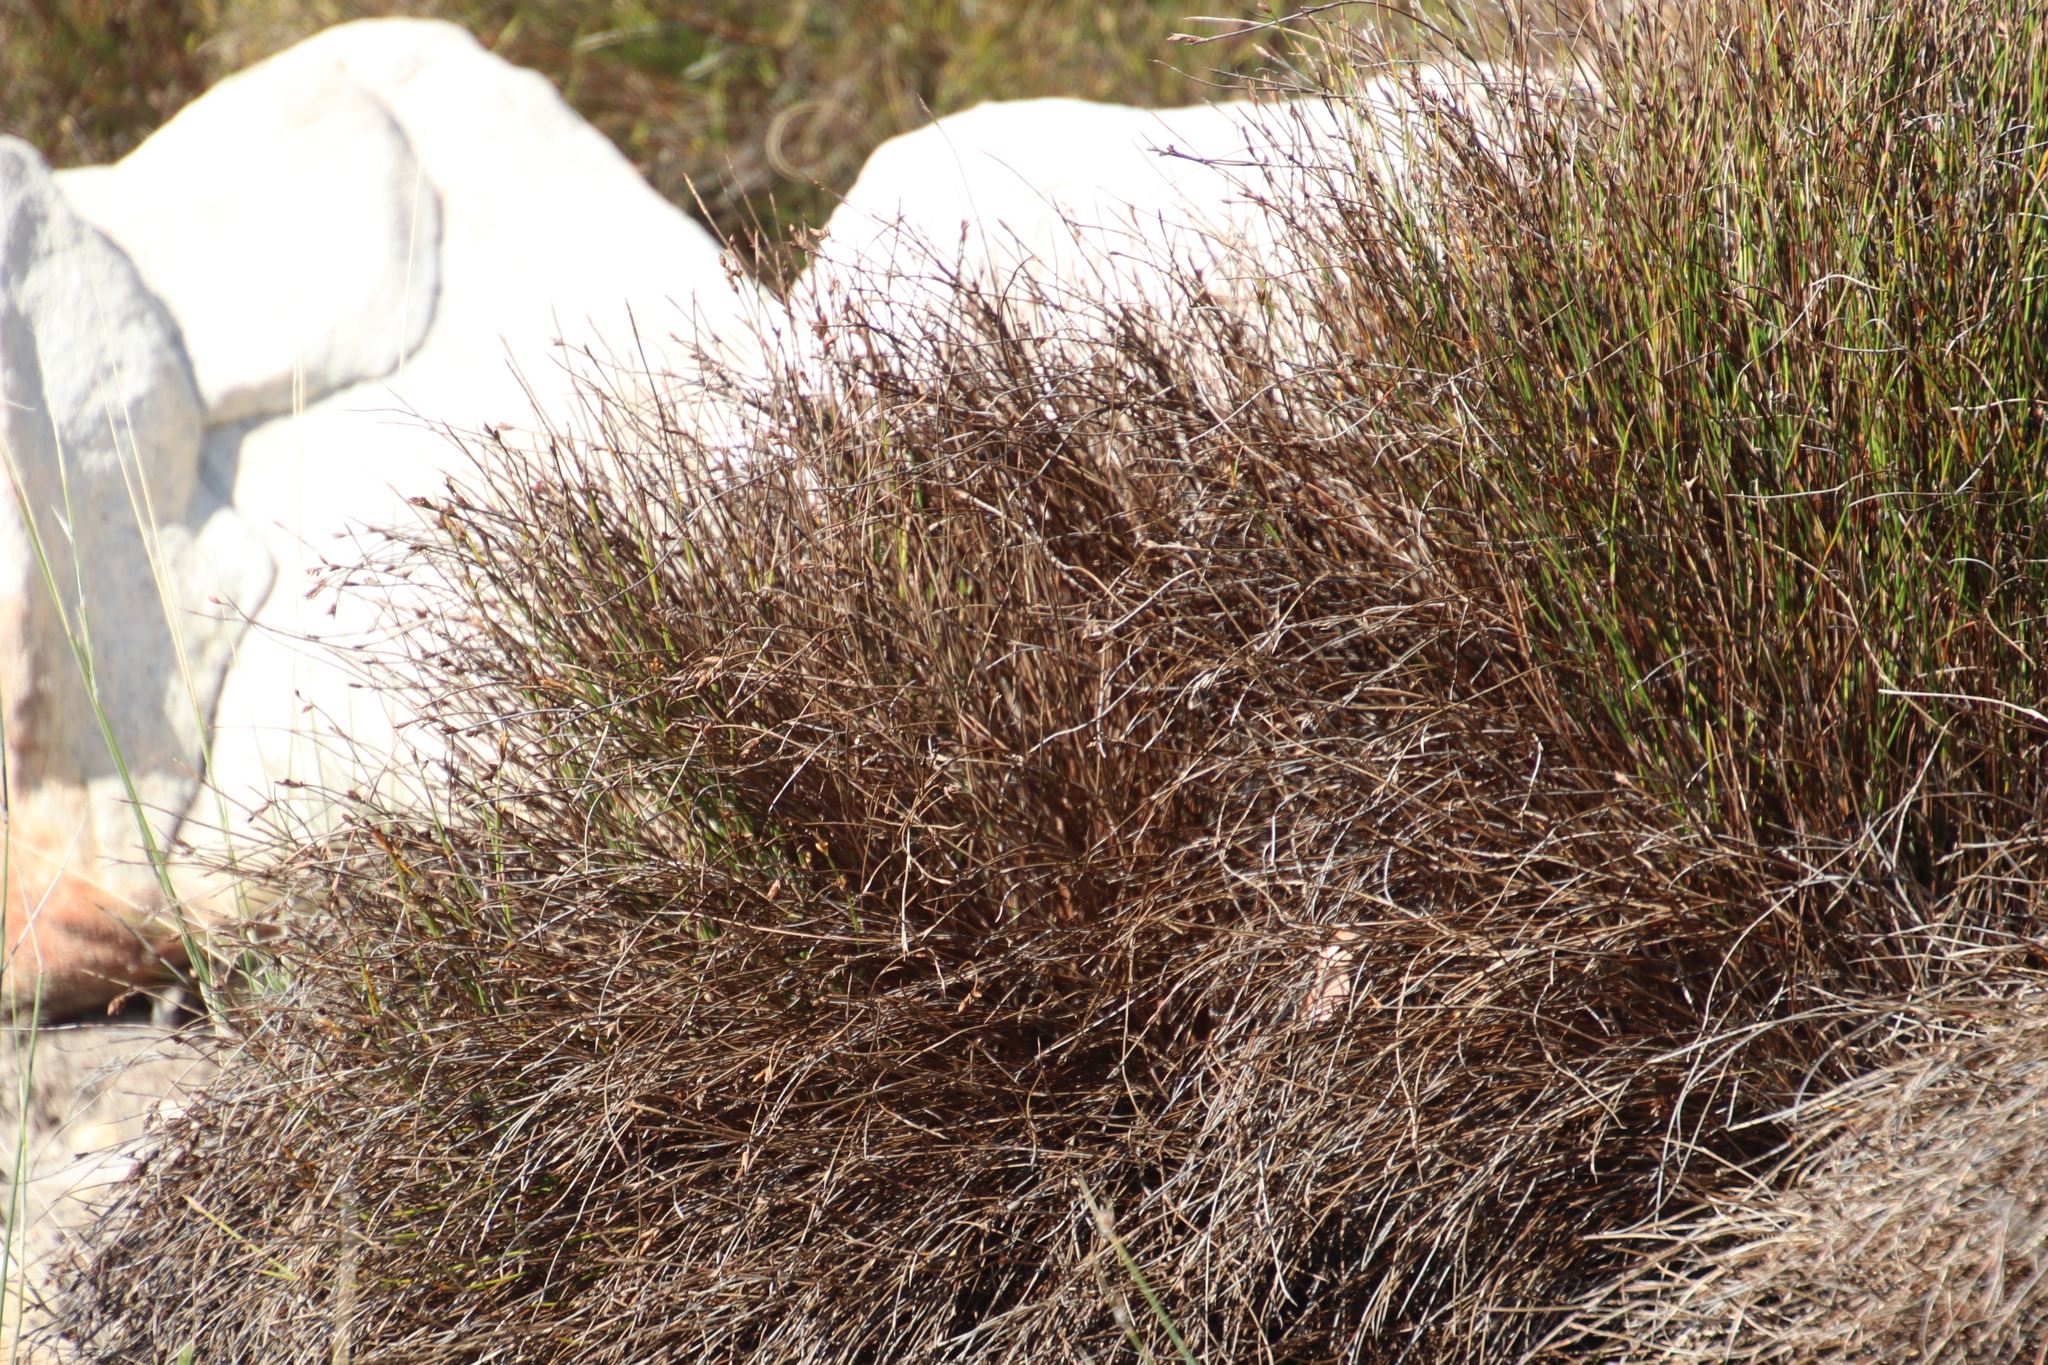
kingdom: Plantae
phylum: Tracheophyta
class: Liliopsida
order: Poales
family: Restionaceae
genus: Mastersiella
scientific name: Mastersiella digitata
